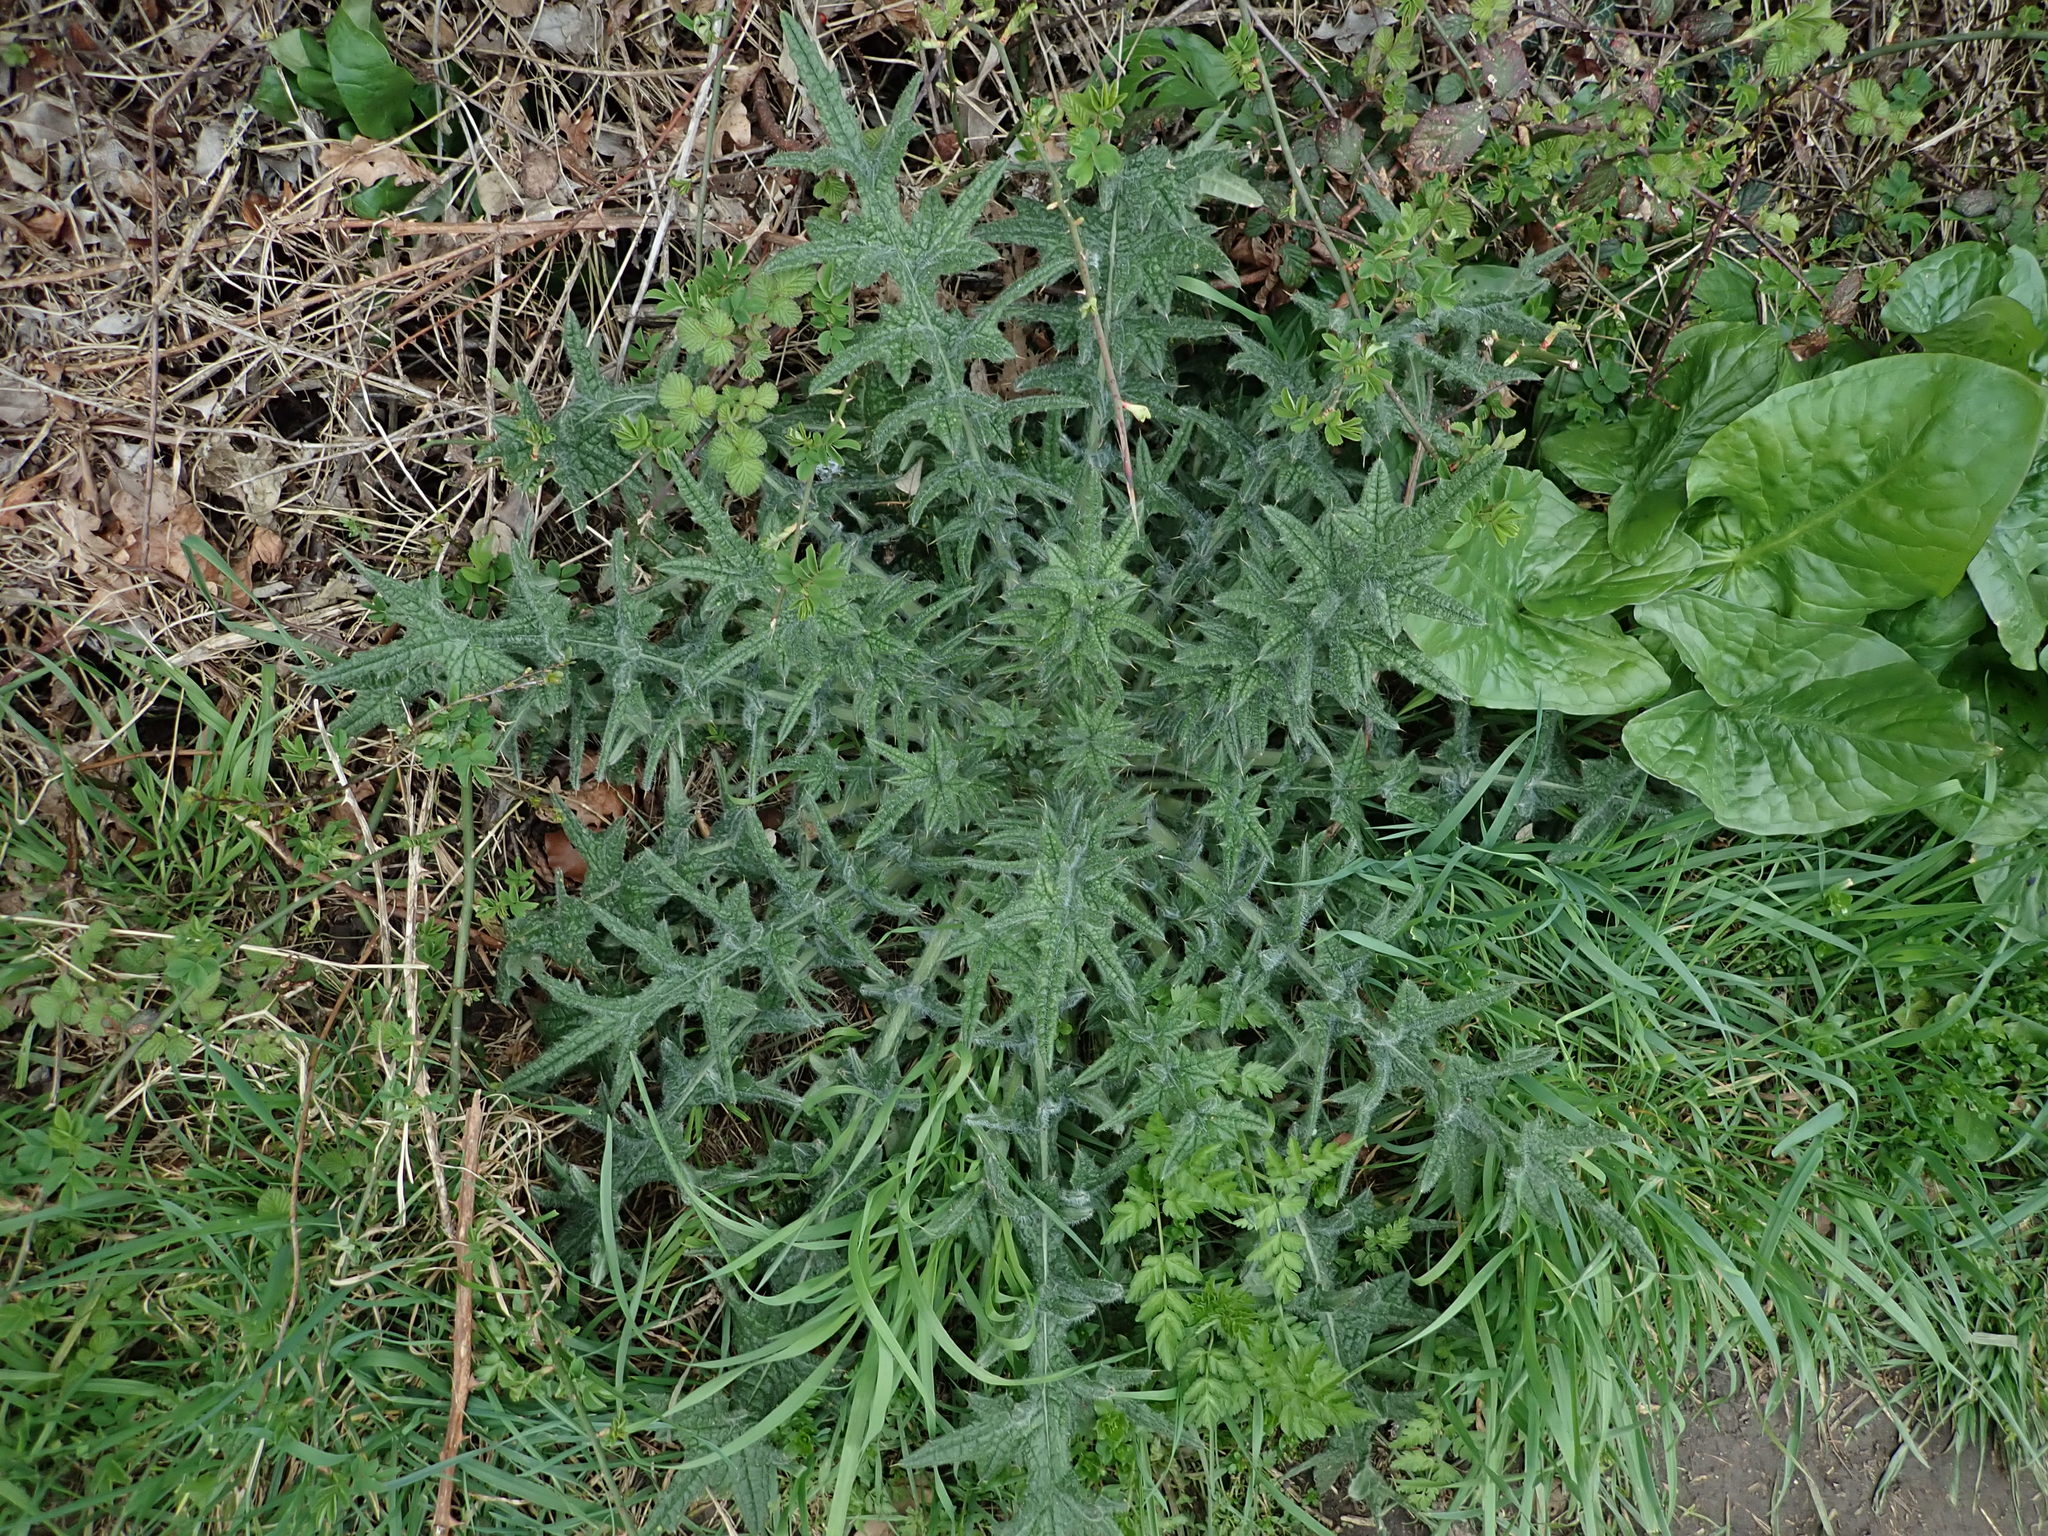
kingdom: Plantae
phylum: Tracheophyta
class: Magnoliopsida
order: Asterales
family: Asteraceae
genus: Cirsium
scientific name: Cirsium vulgare
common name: Bull thistle
